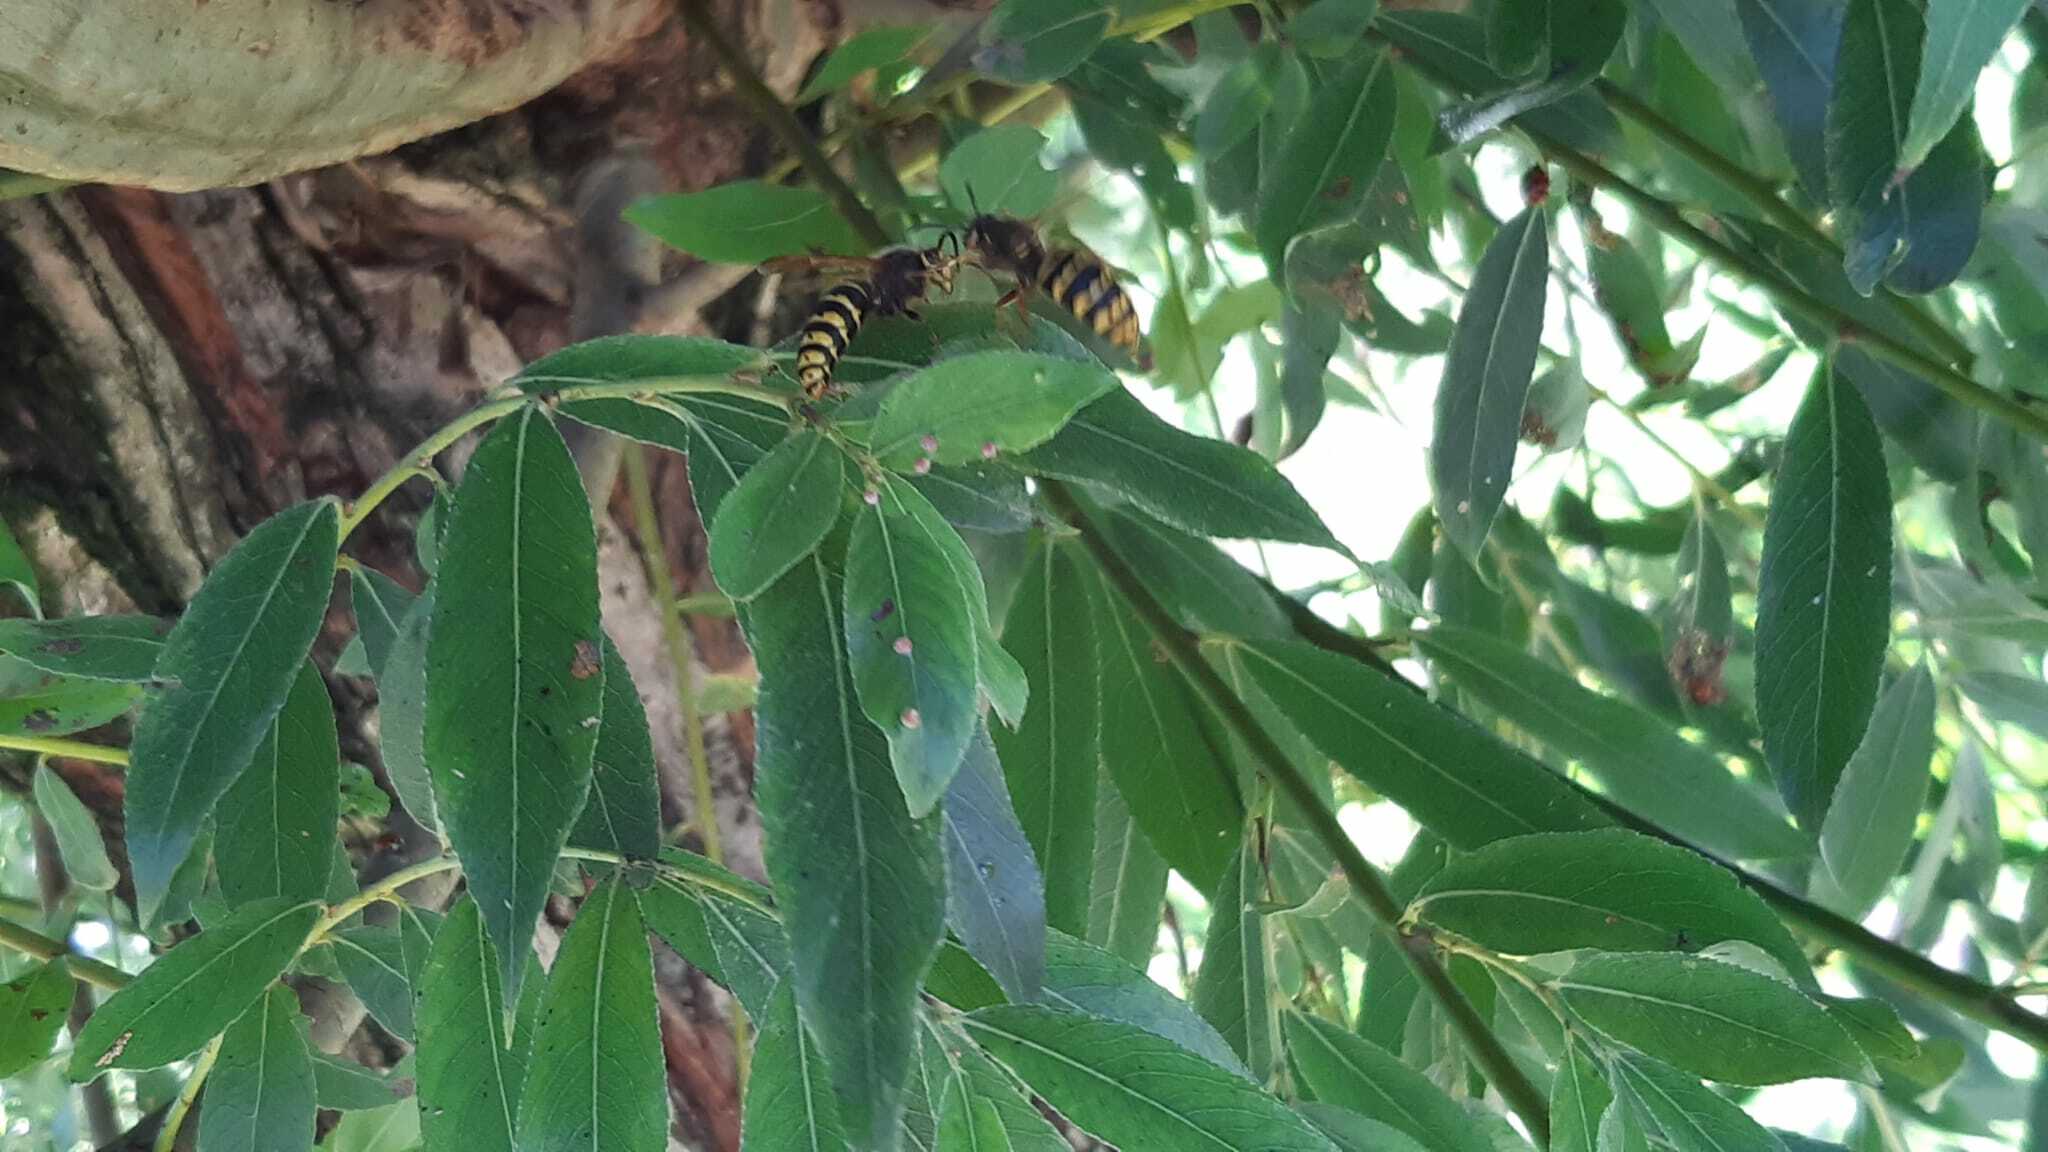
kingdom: Animalia
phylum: Arthropoda
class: Insecta
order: Hymenoptera
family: Vespidae
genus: Vespa
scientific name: Vespa crabro
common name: Hornet
